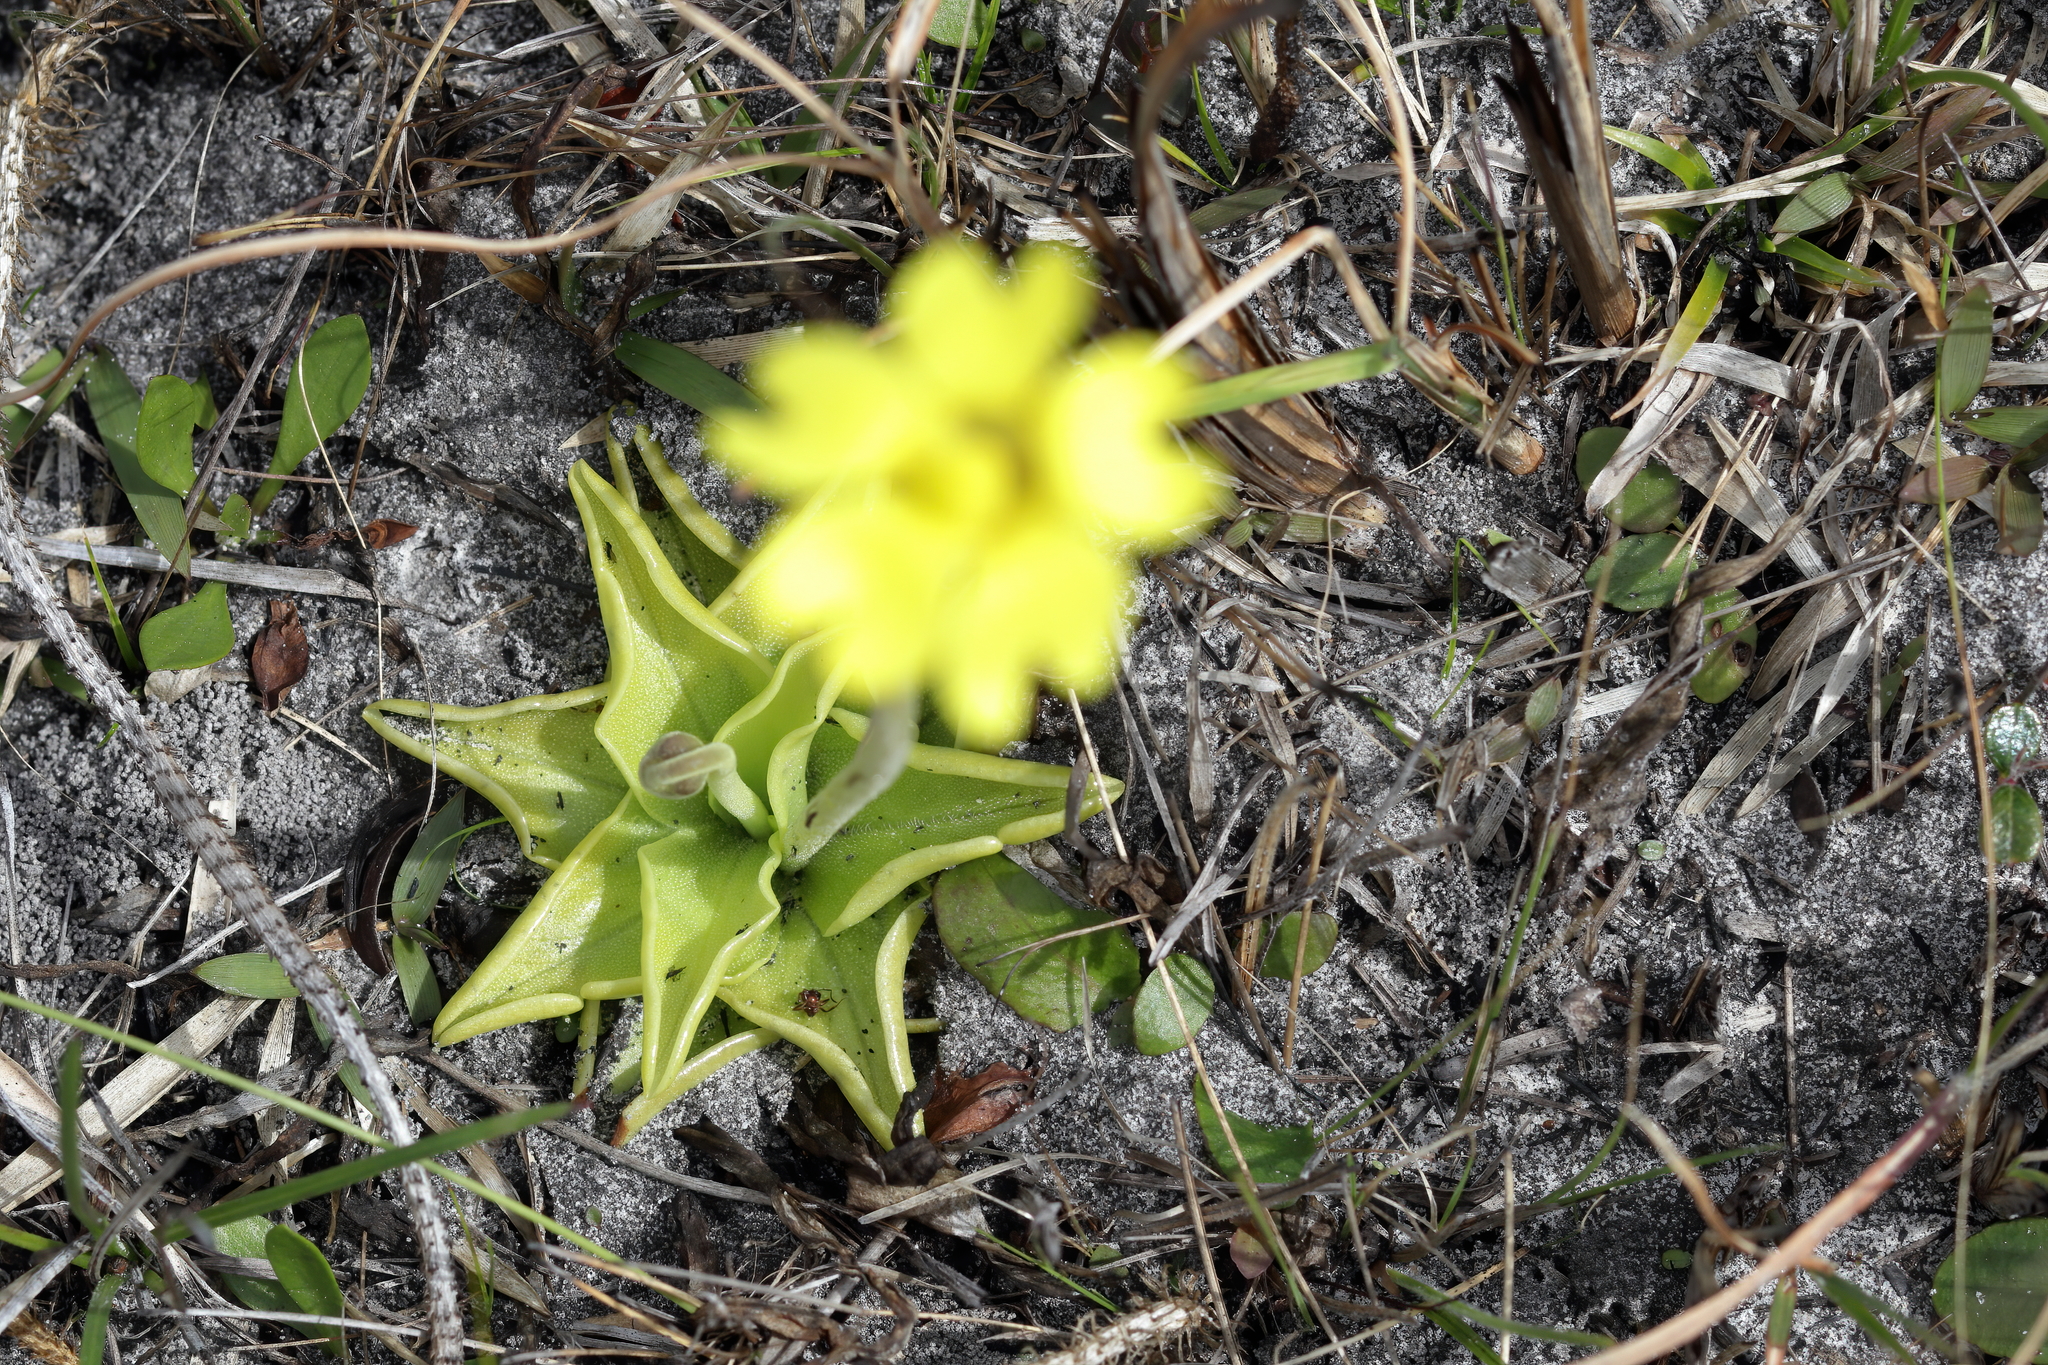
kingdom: Plantae
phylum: Tracheophyta
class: Magnoliopsida
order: Lamiales
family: Lentibulariaceae
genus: Pinguicula
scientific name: Pinguicula lutea
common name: Yellow butterwort
